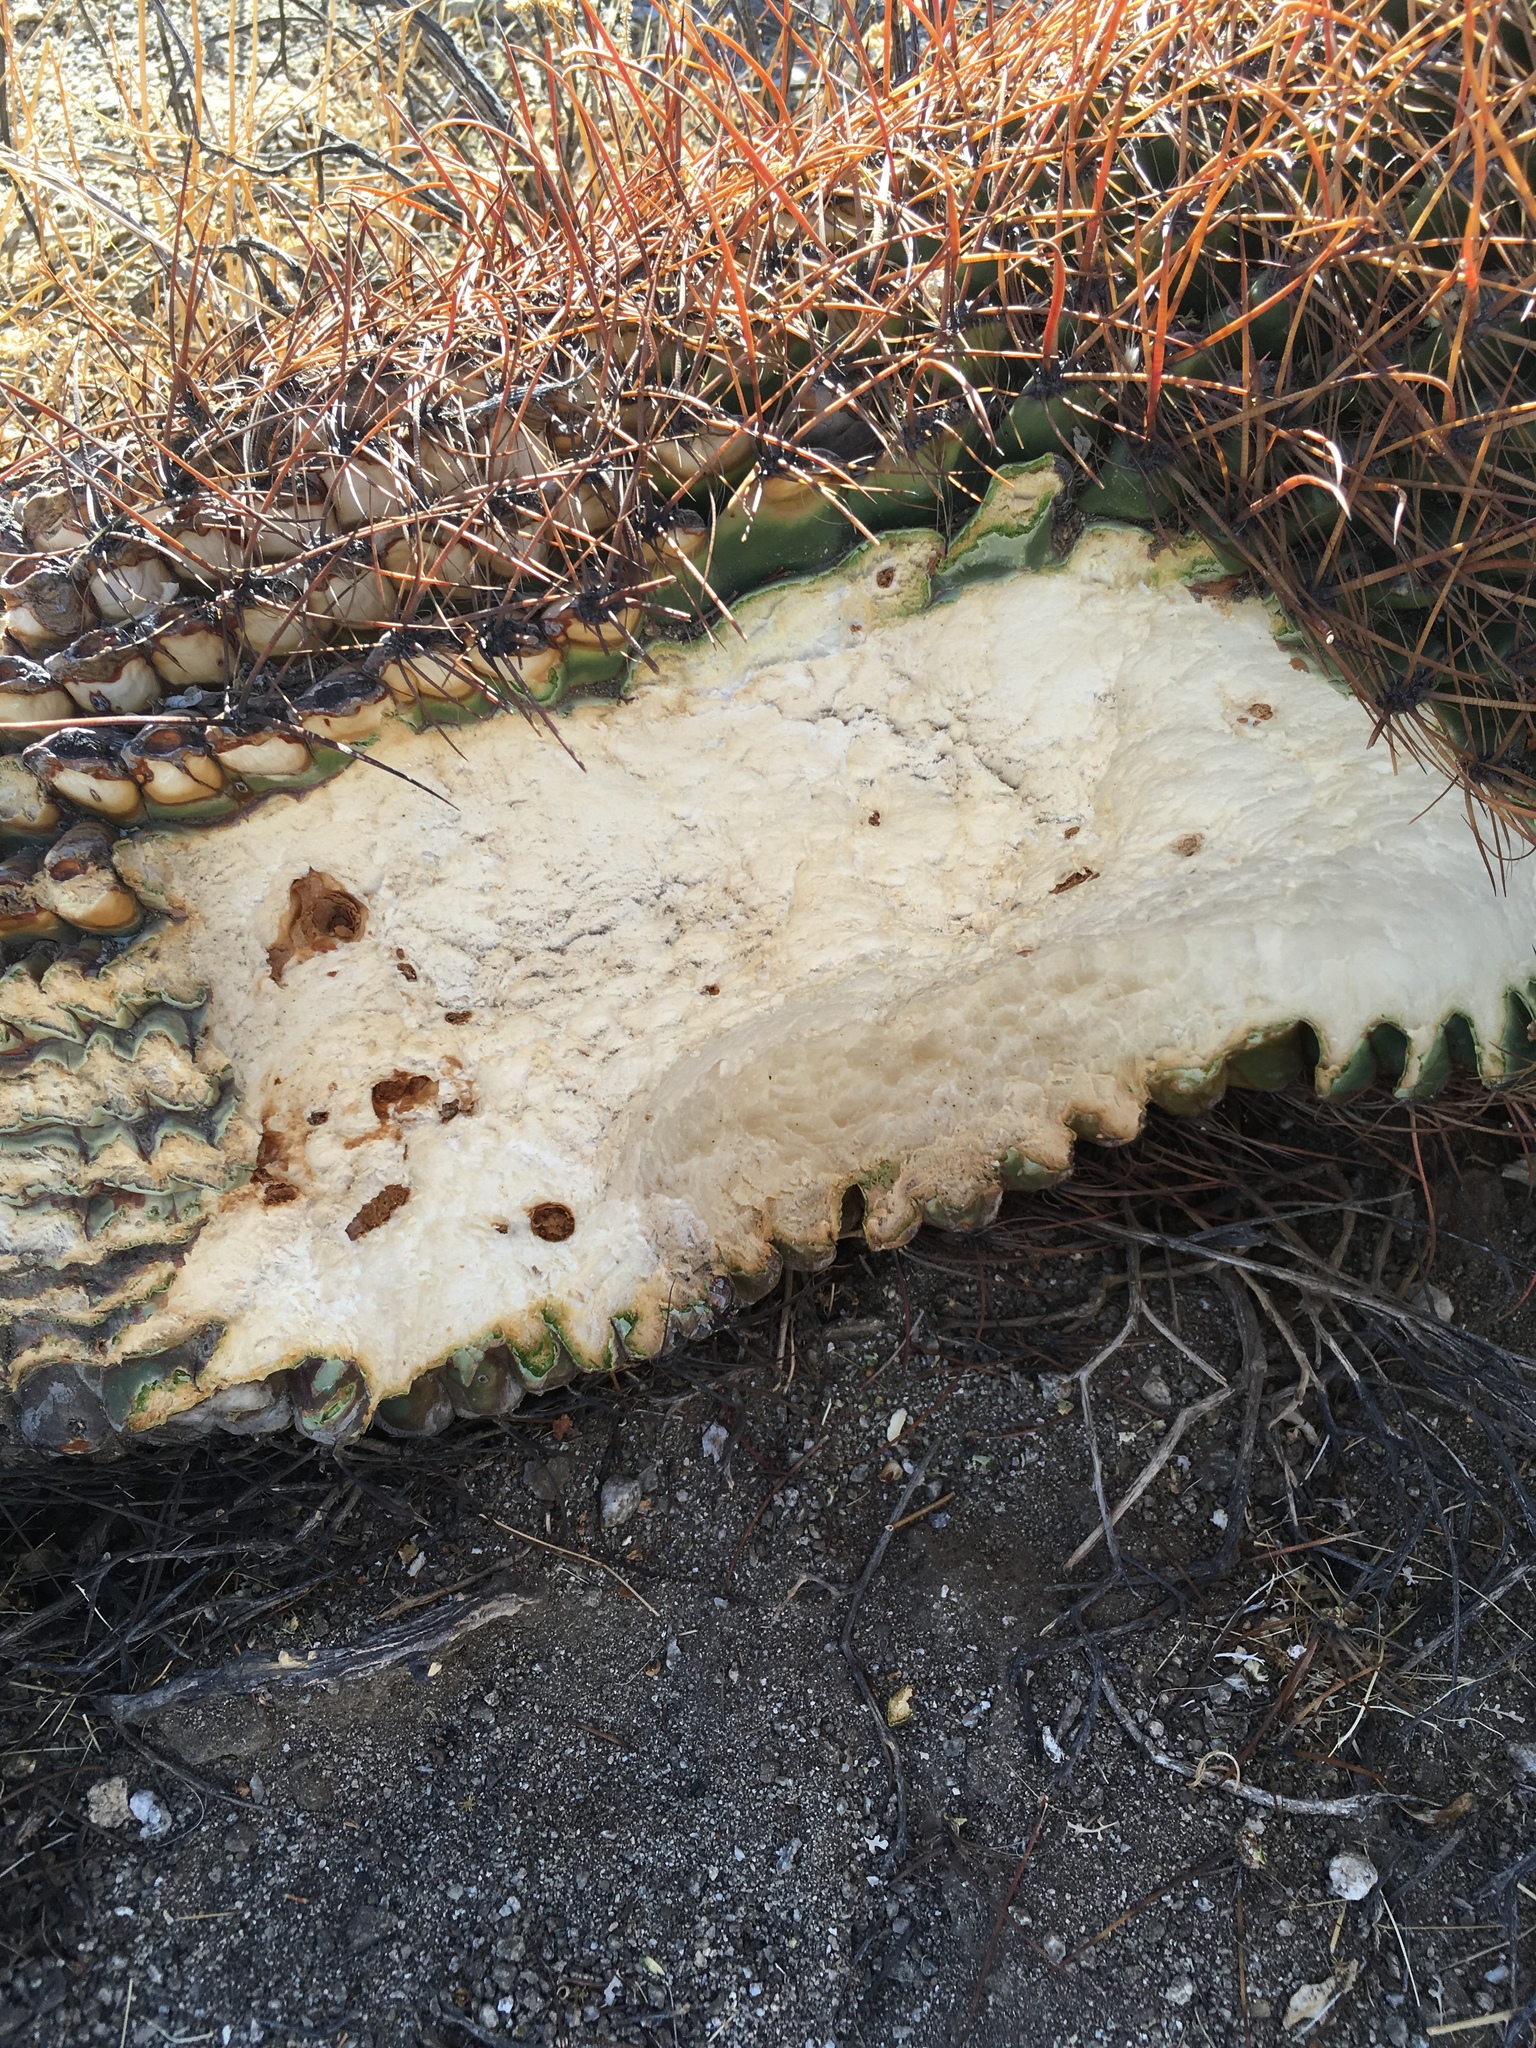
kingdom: Plantae
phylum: Tracheophyta
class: Magnoliopsida
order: Caryophyllales
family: Cactaceae
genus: Ferocactus
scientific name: Ferocactus cylindraceus
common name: California barrel cactus
